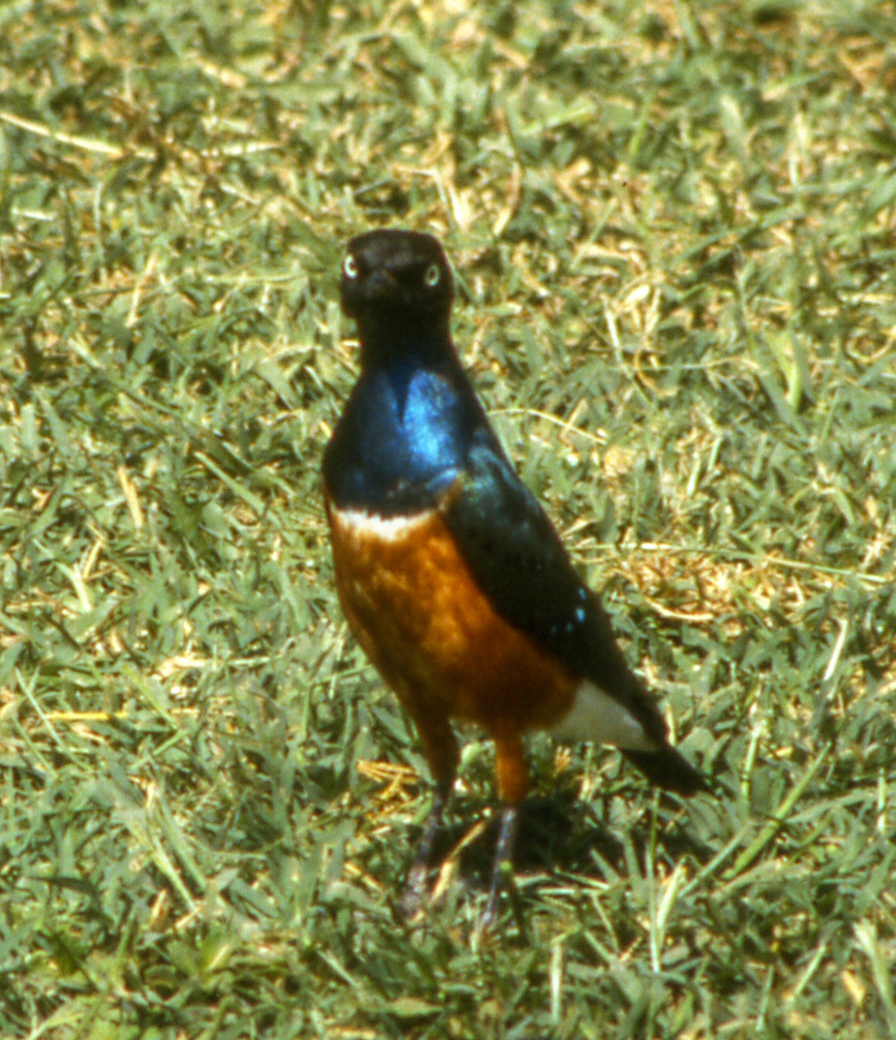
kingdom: Animalia
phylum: Chordata
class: Aves
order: Passeriformes
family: Sturnidae
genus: Lamprotornis
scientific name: Lamprotornis superbus
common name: Superb starling
